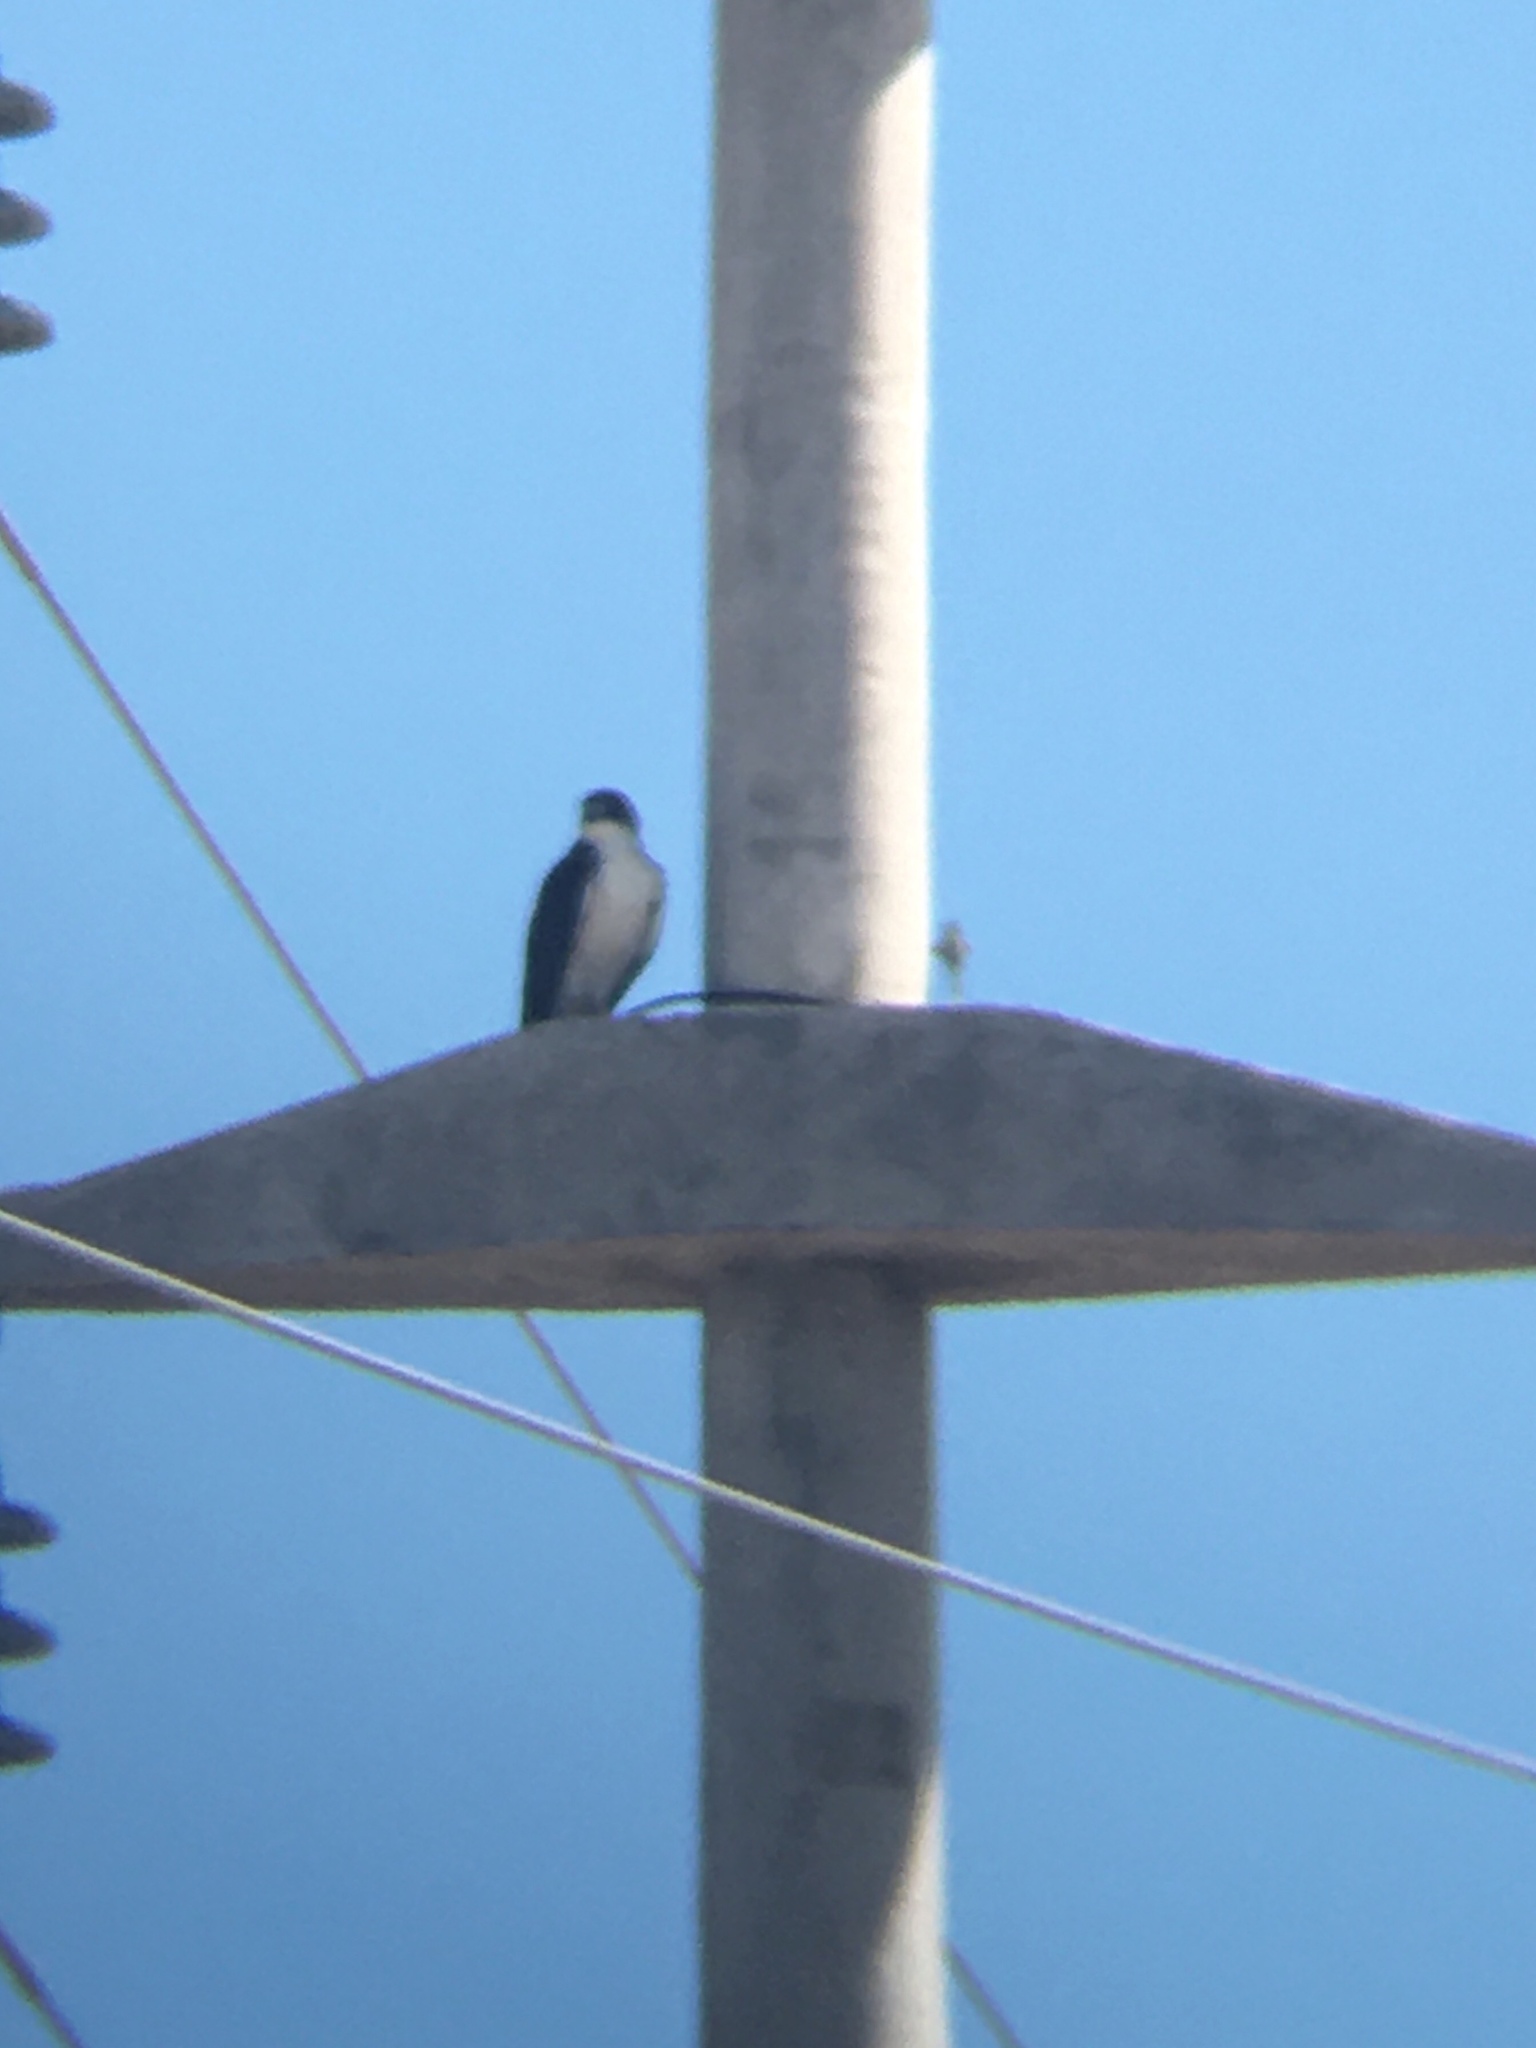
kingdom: Animalia
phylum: Chordata
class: Aves
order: Accipitriformes
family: Accipitridae
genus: Buteo
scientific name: Buteo polyosoma
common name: Variable hawk
